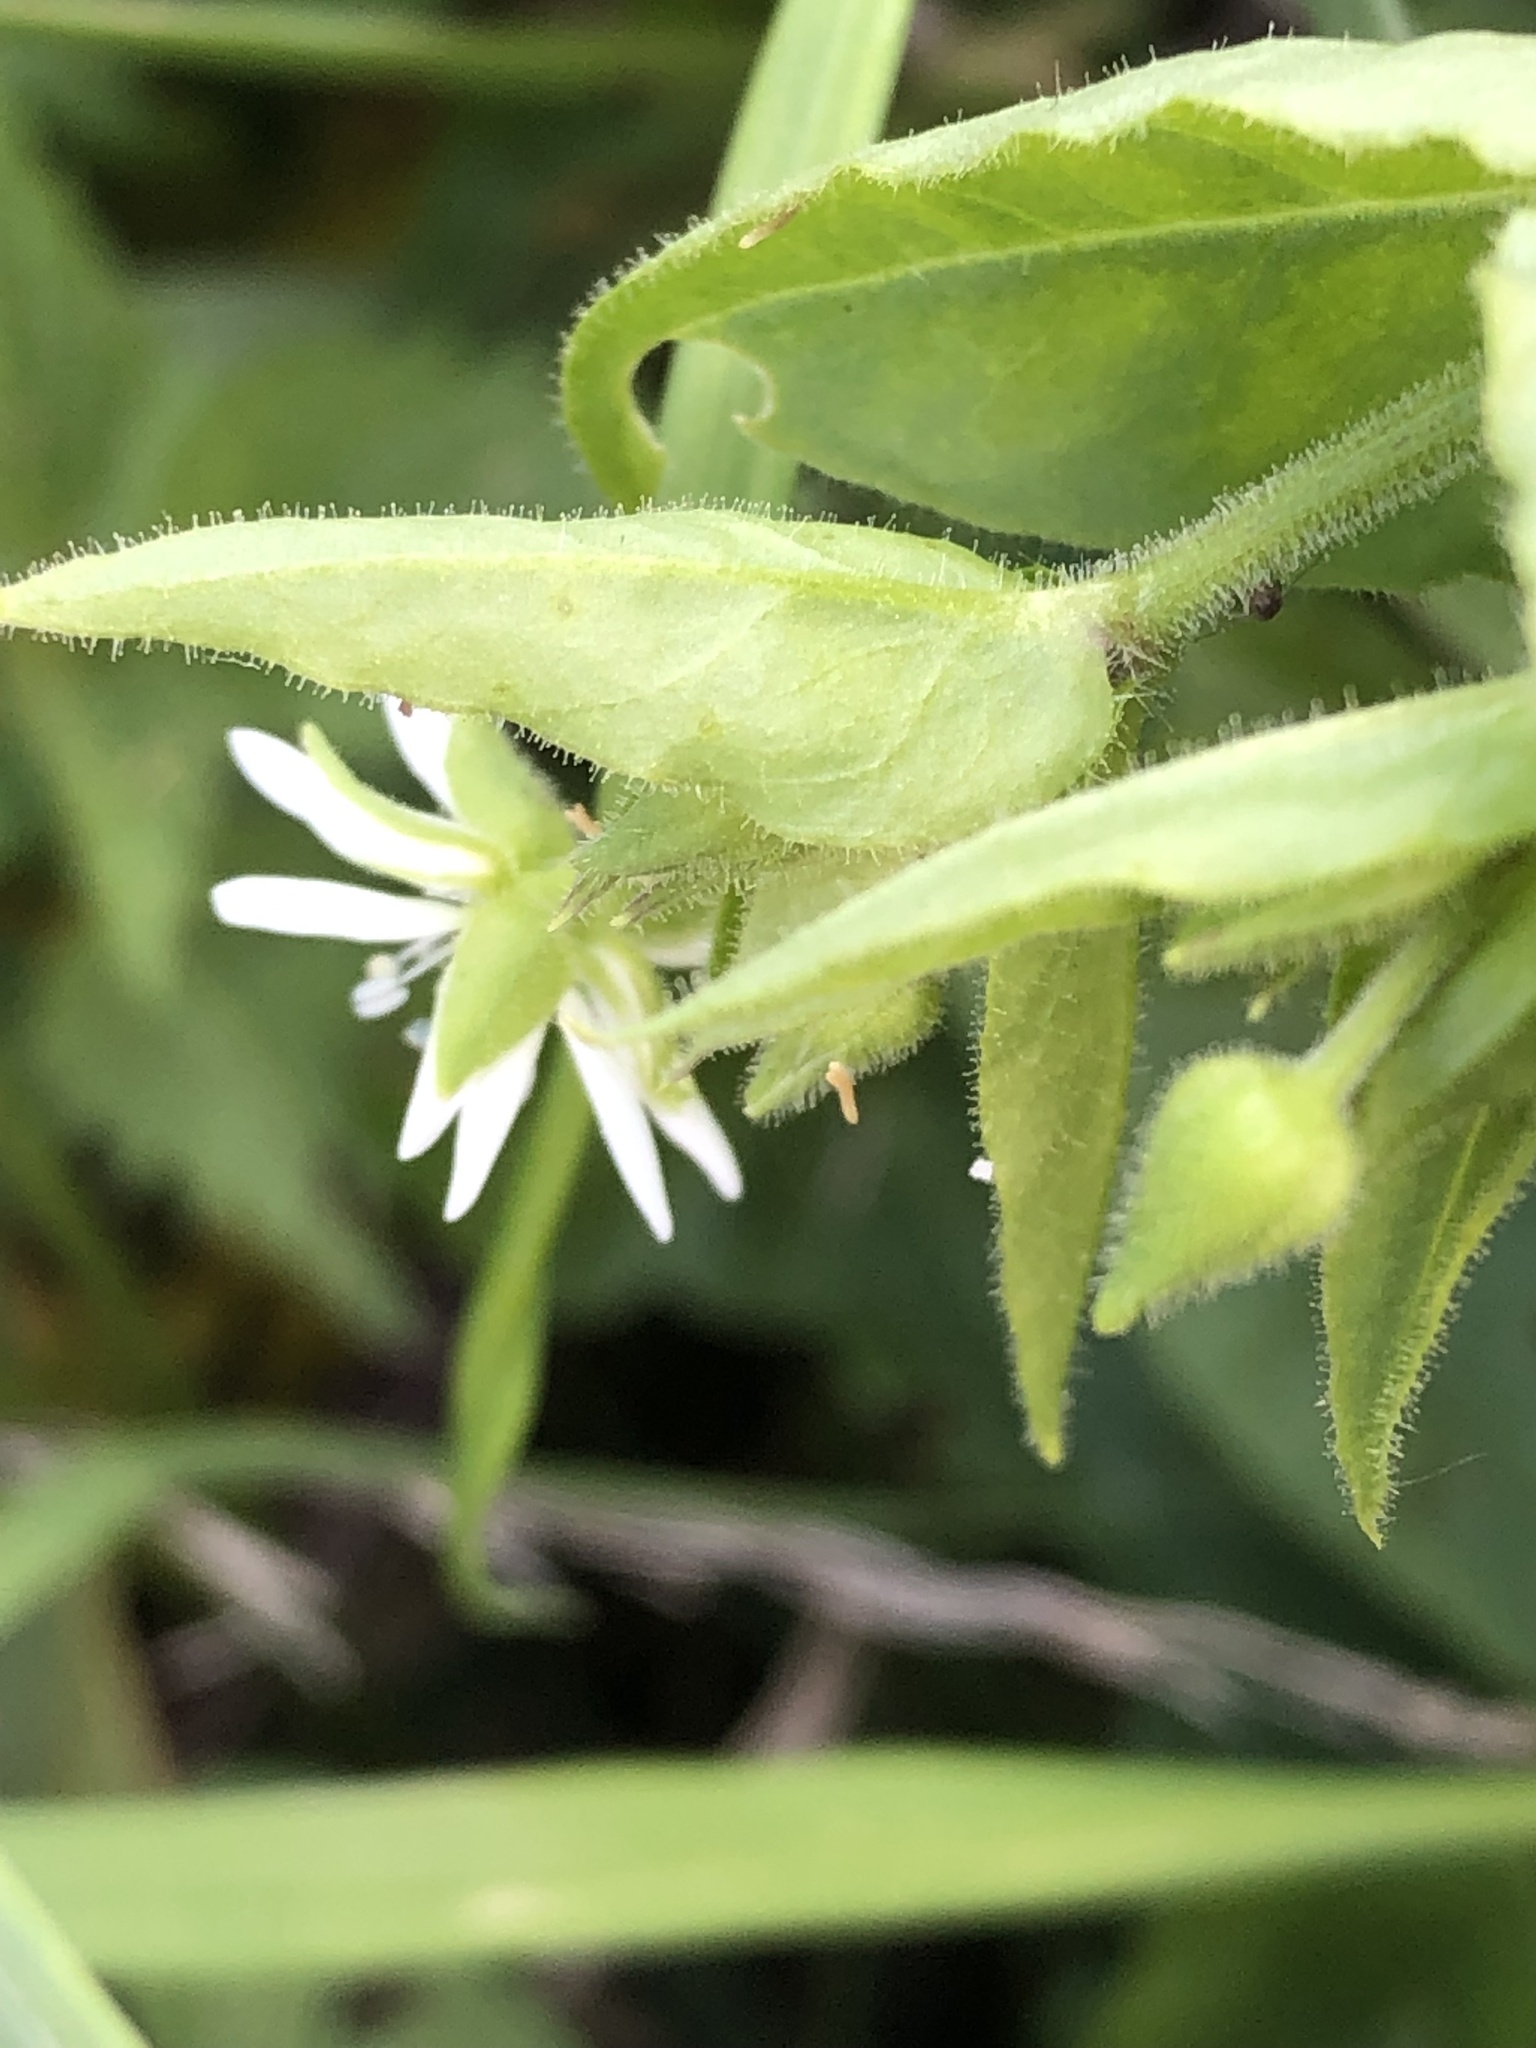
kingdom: Plantae
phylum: Tracheophyta
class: Magnoliopsida
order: Caryophyllales
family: Caryophyllaceae
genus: Stellaria
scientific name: Stellaria aquatica
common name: Water chickweed
